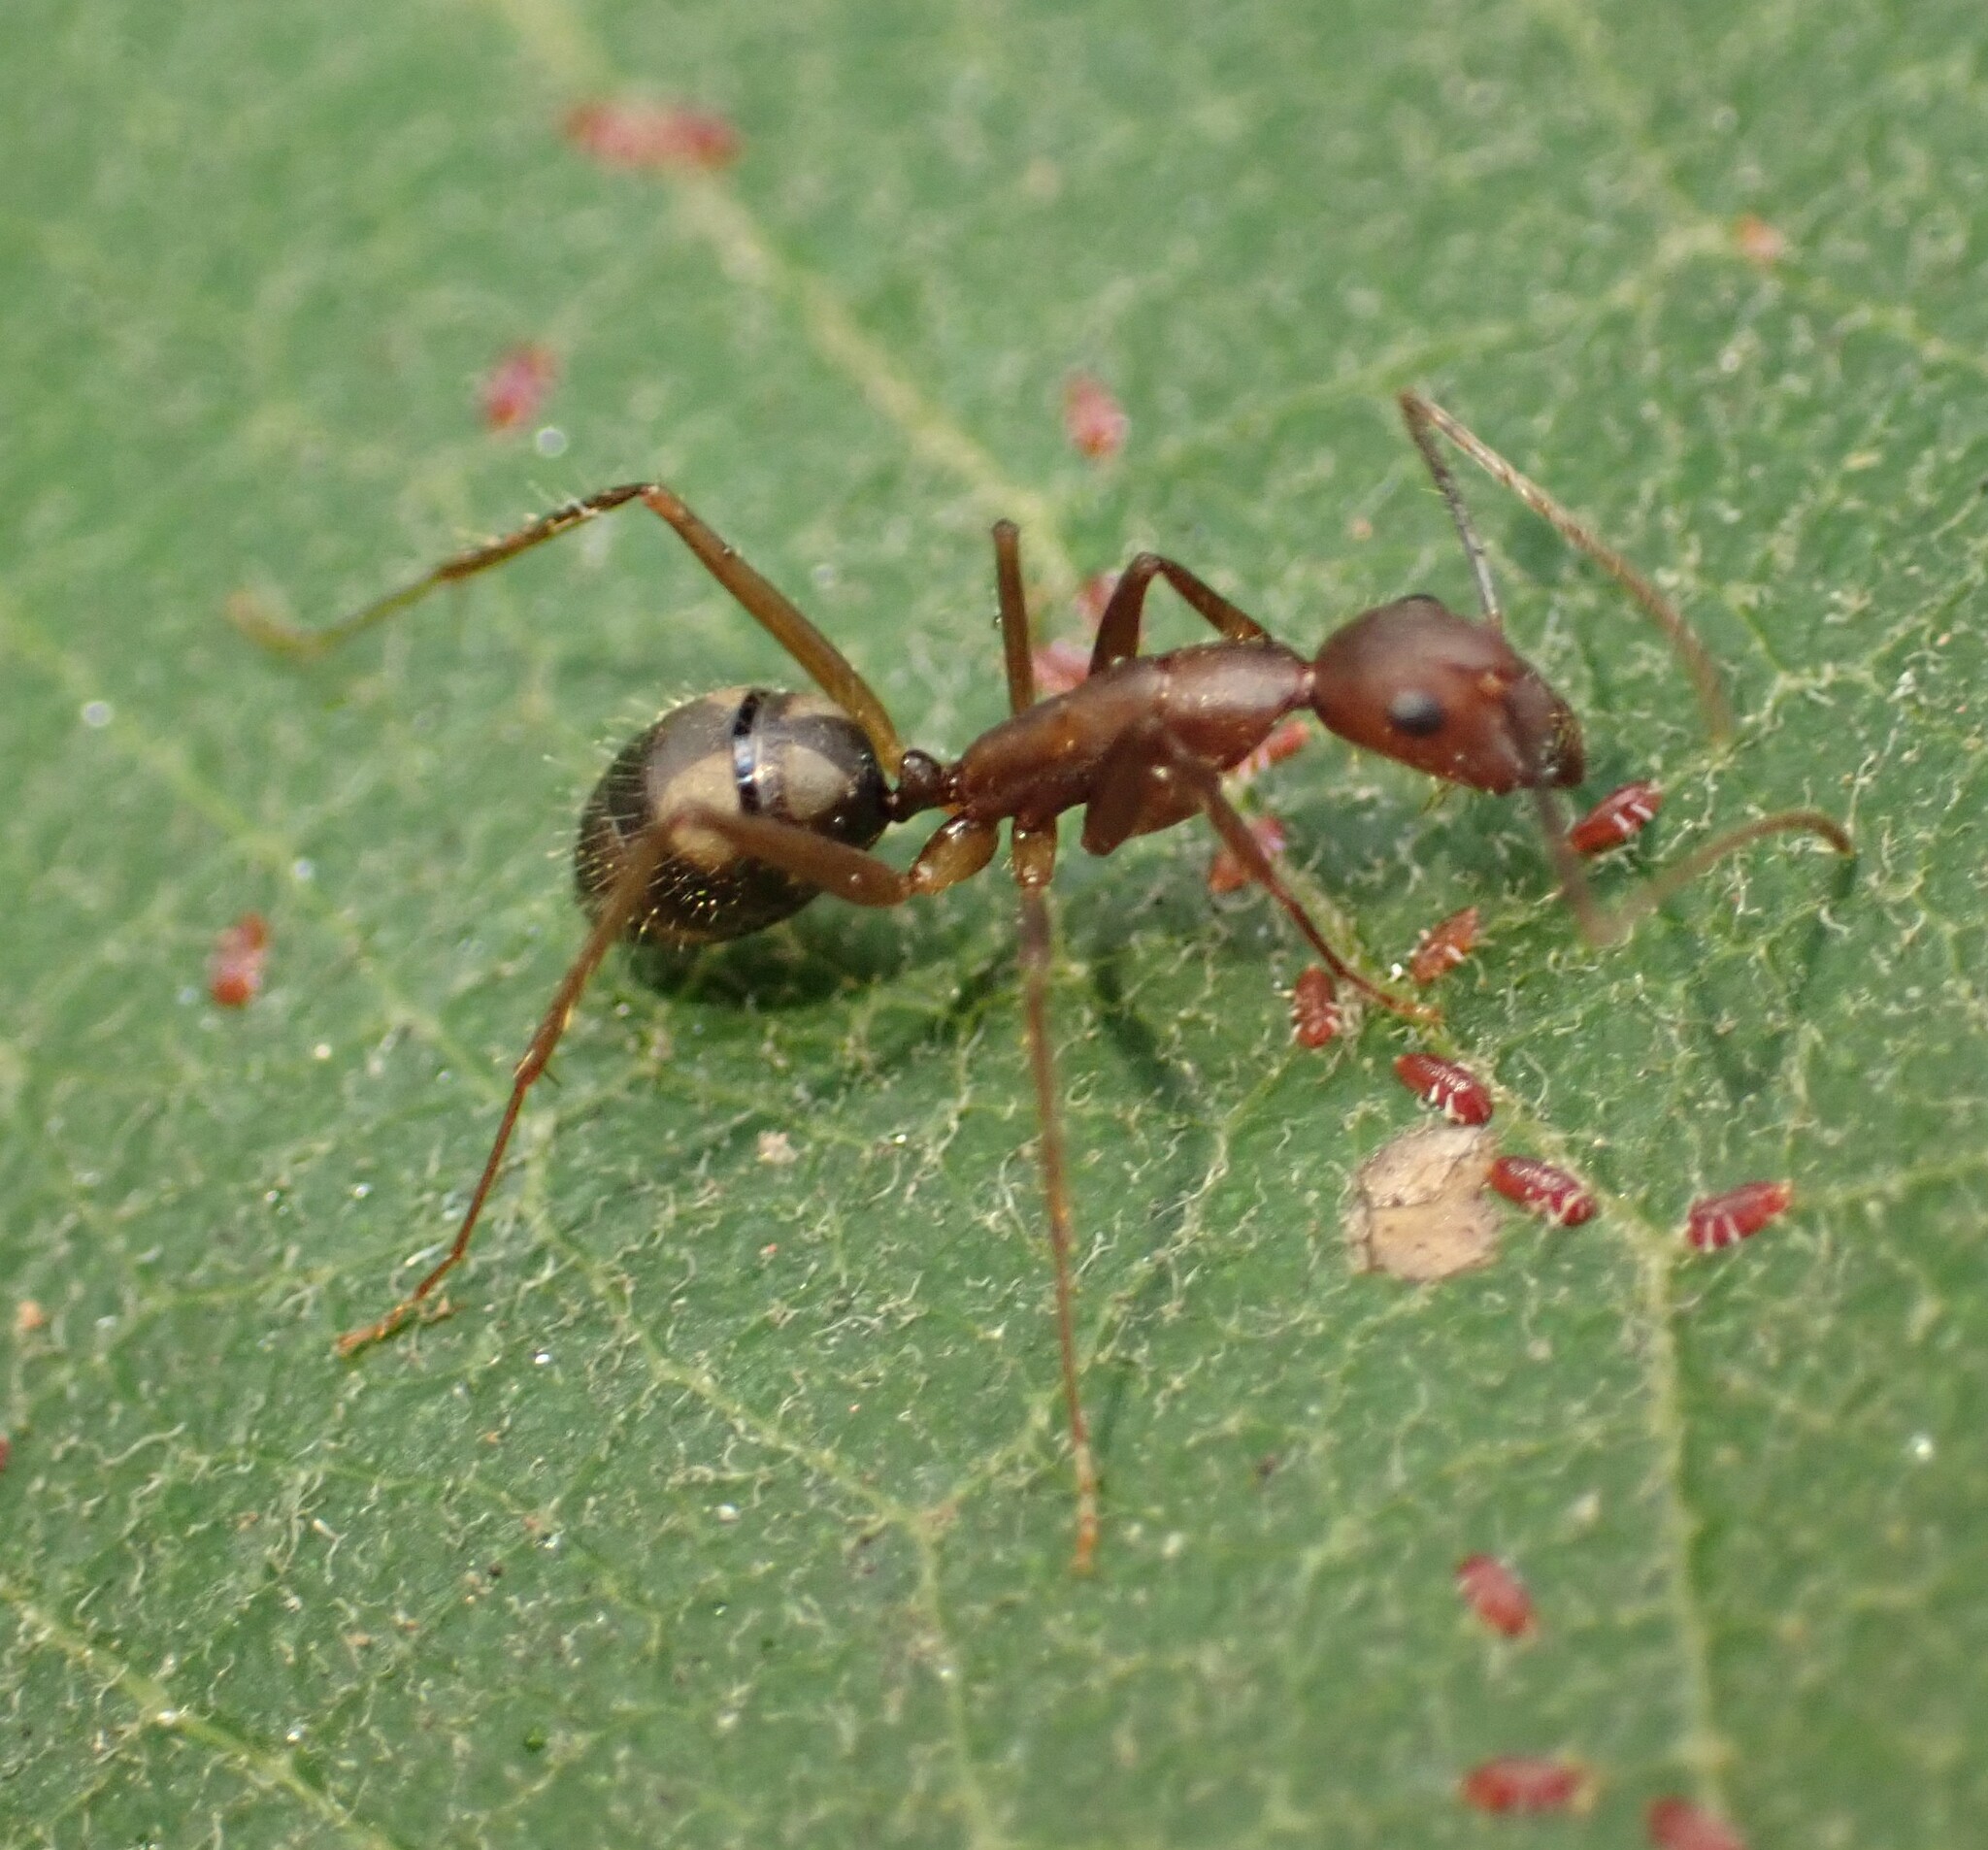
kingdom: Animalia
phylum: Arthropoda
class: Insecta
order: Hymenoptera
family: Formicidae
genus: Camponotus
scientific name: Camponotus cingulatus
